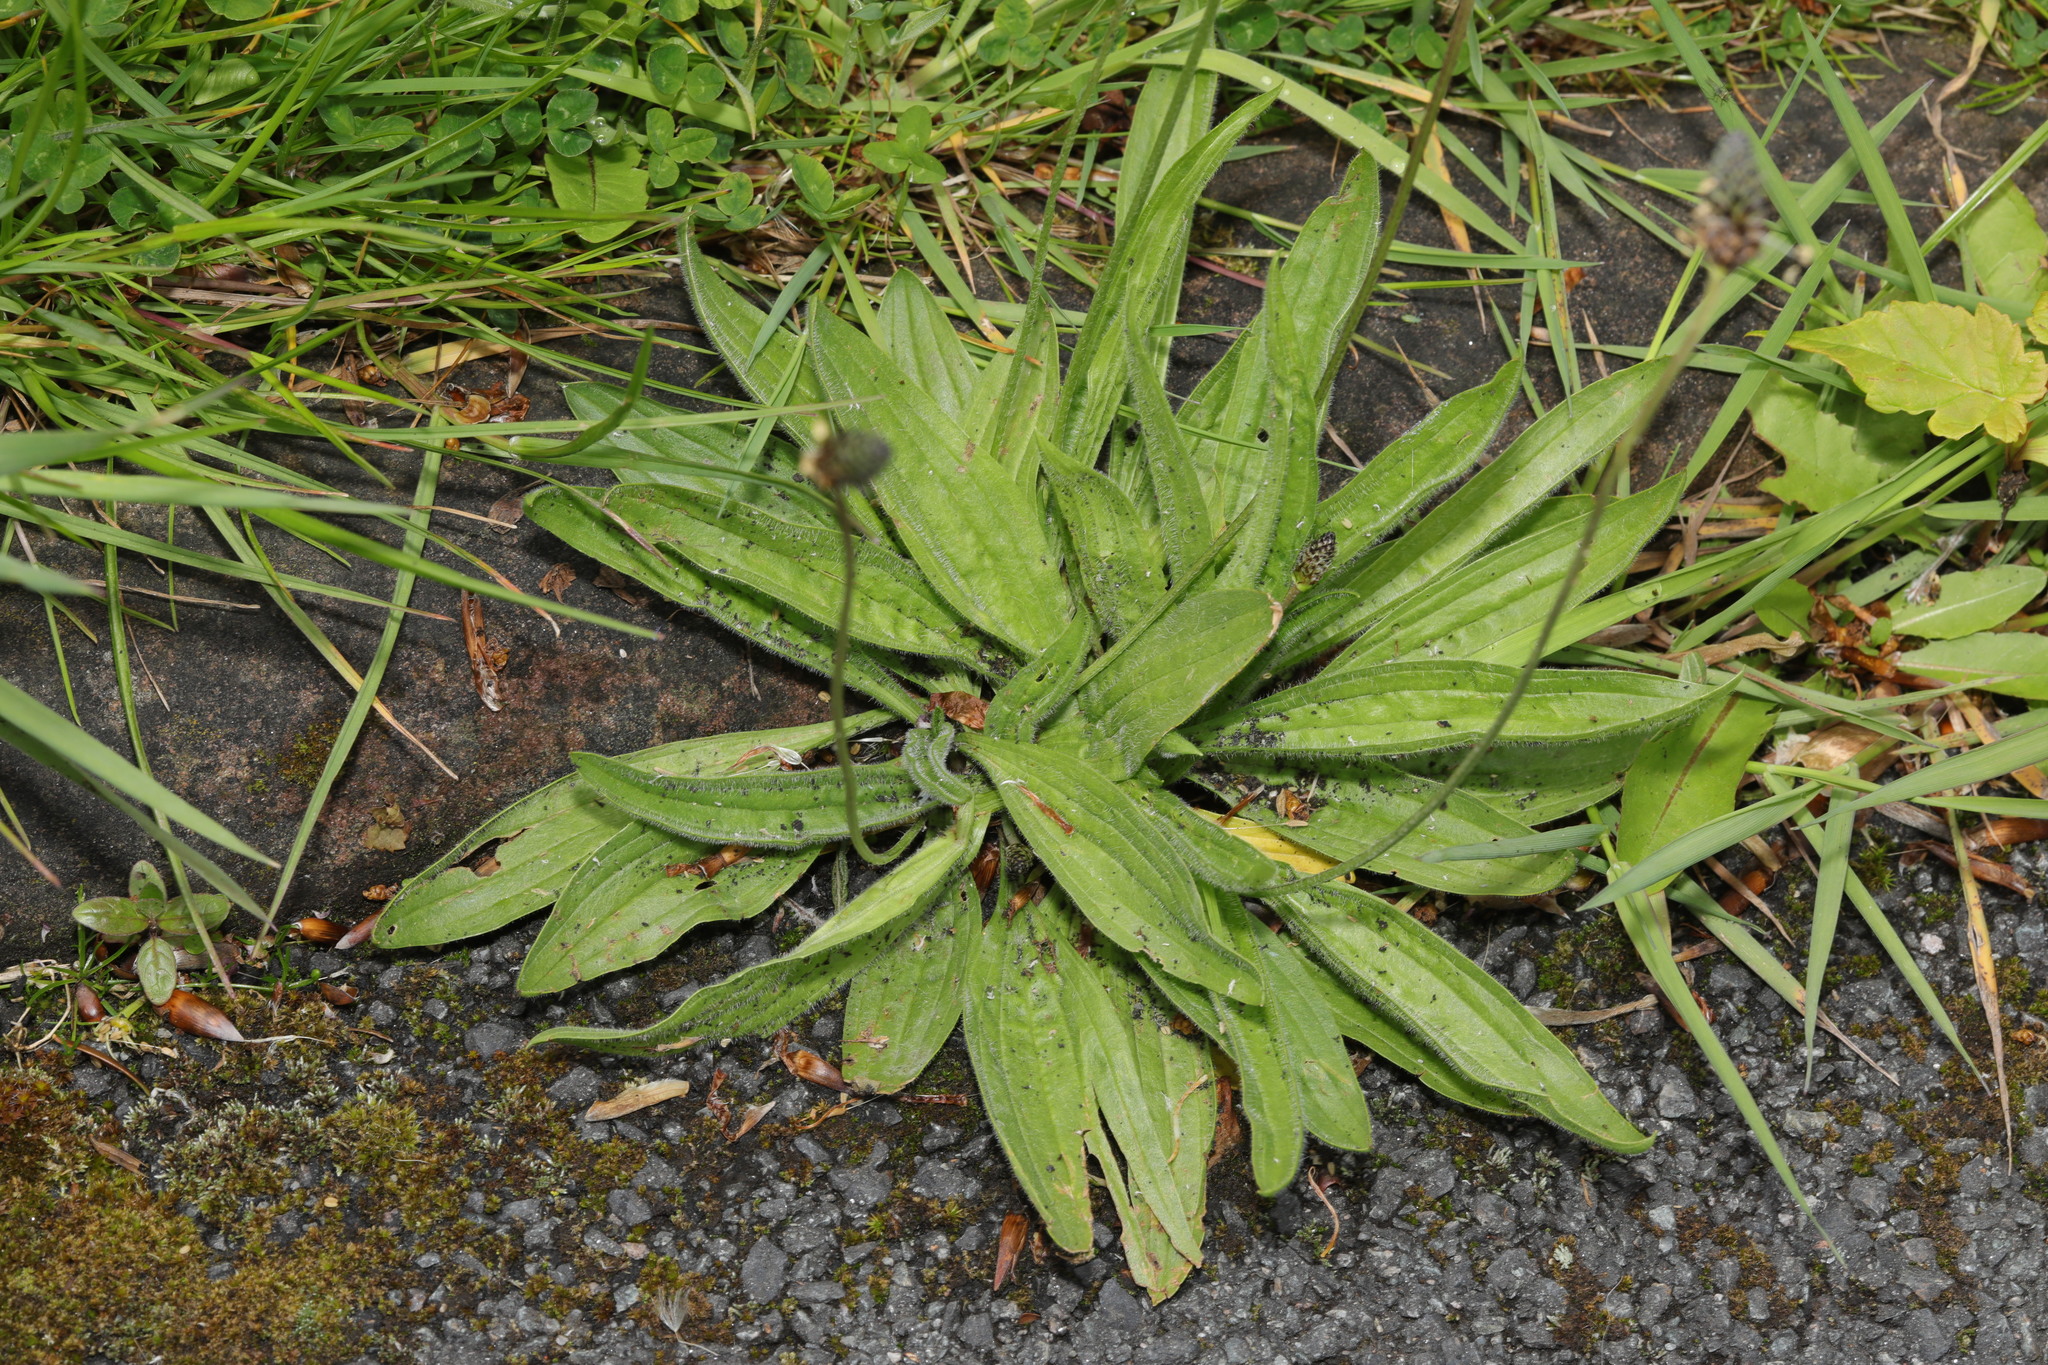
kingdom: Plantae
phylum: Tracheophyta
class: Magnoliopsida
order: Lamiales
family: Plantaginaceae
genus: Plantago
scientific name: Plantago lanceolata
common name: Ribwort plantain
